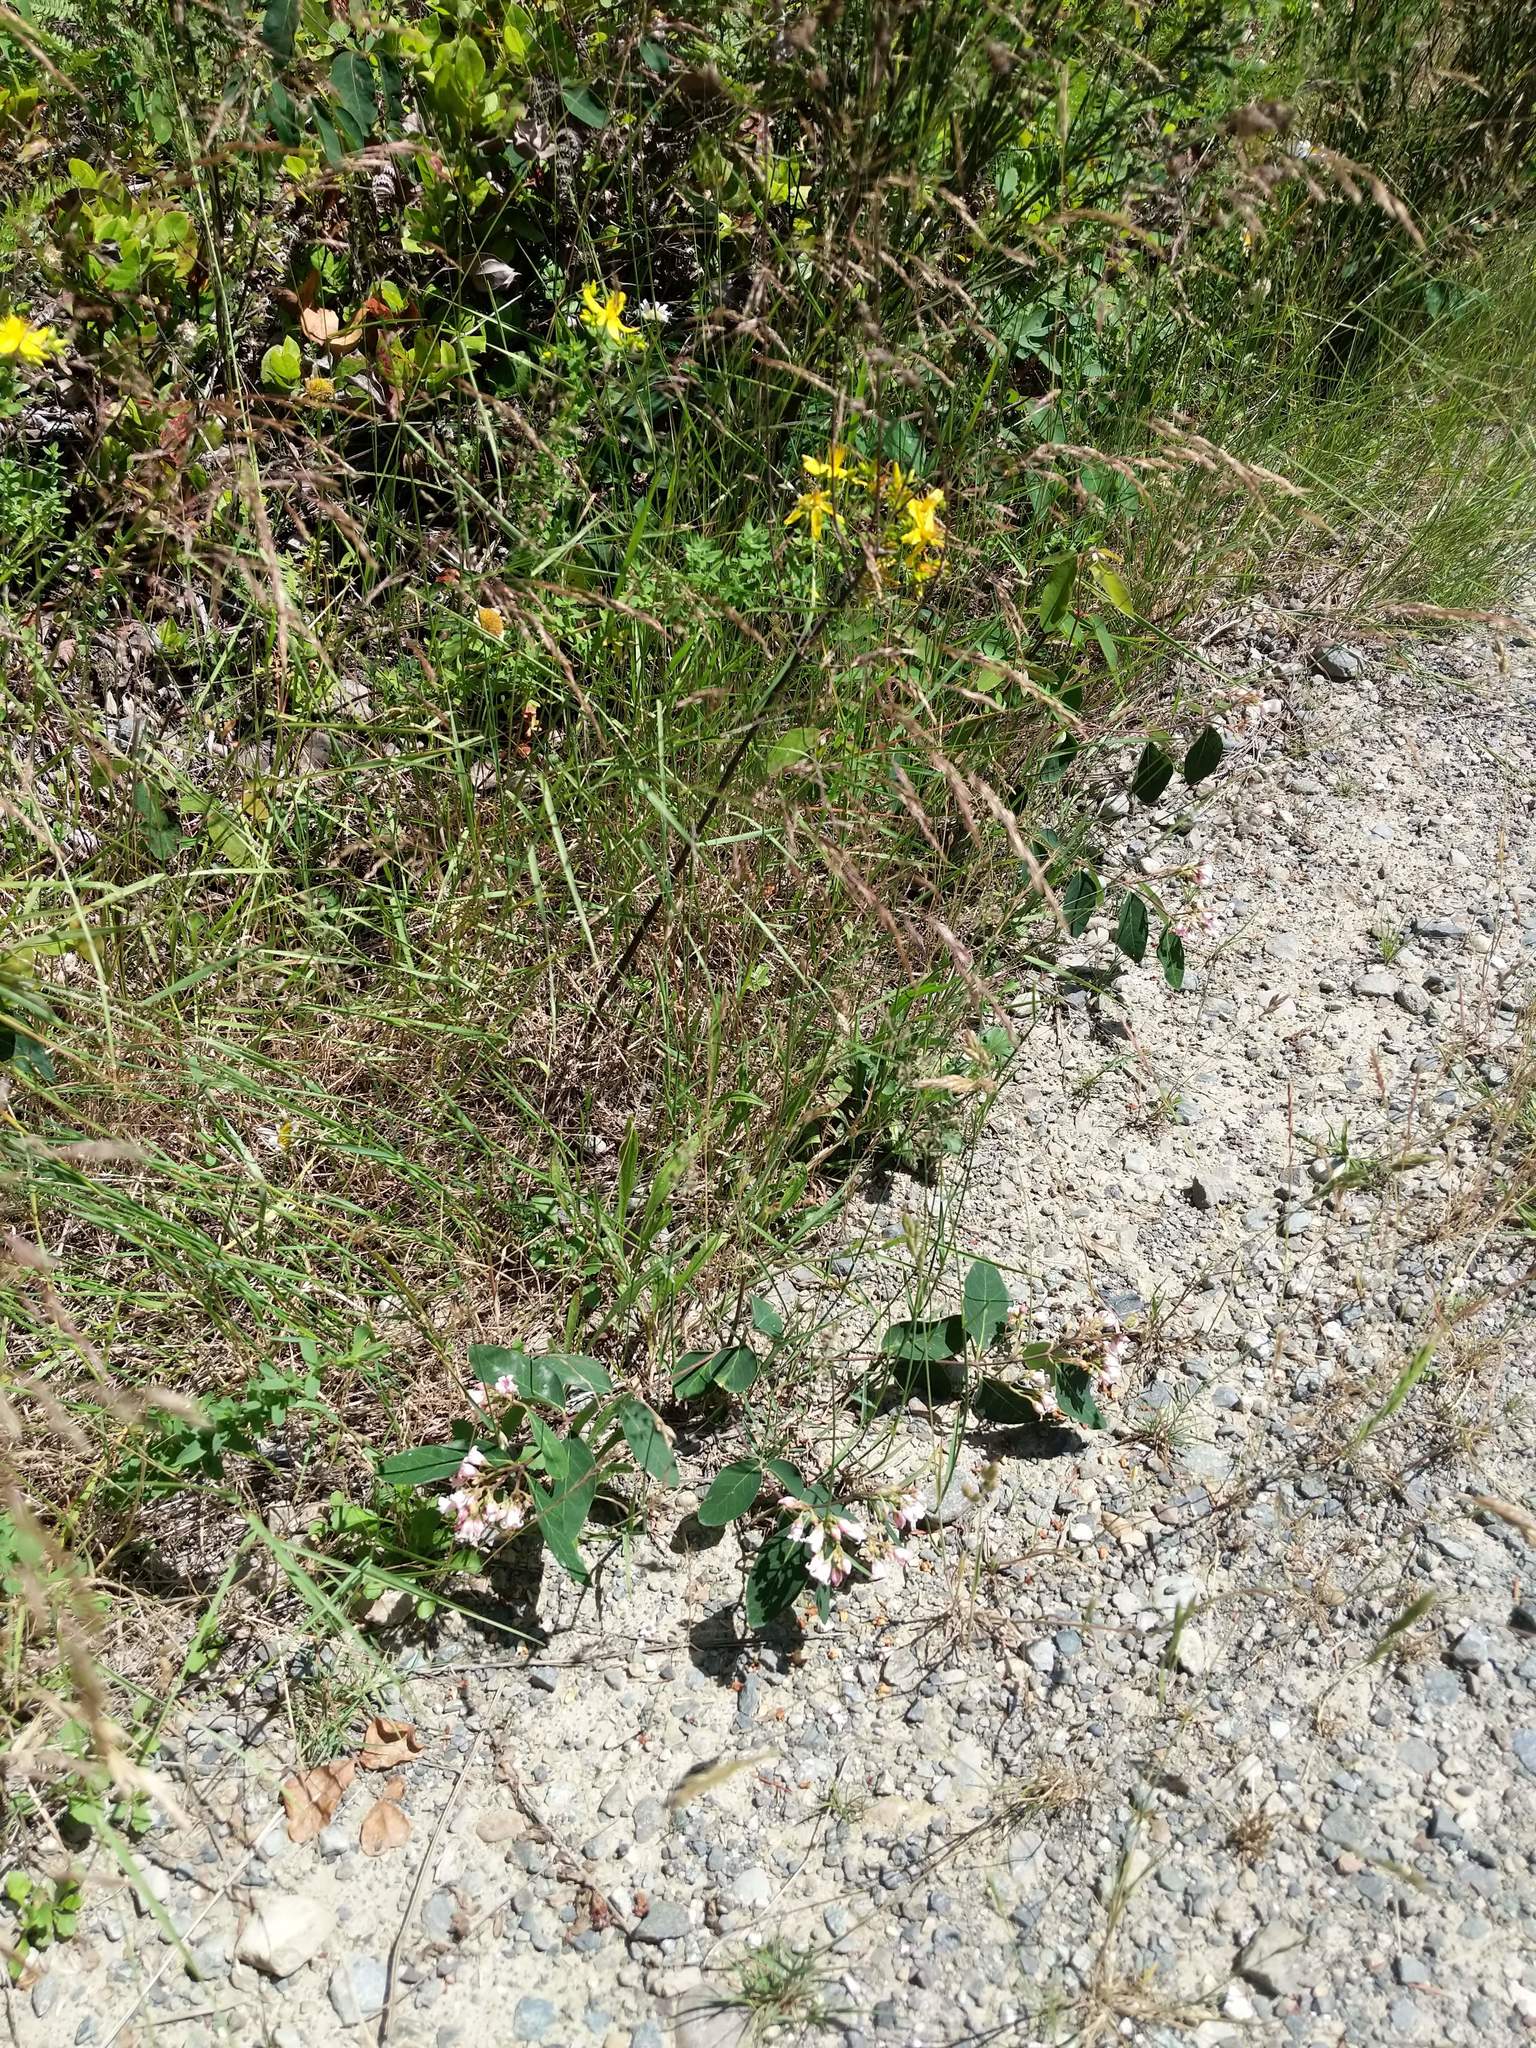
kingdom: Plantae
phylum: Tracheophyta
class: Magnoliopsida
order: Gentianales
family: Apocynaceae
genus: Apocynum
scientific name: Apocynum androsaemifolium
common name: Spreading dogbane
